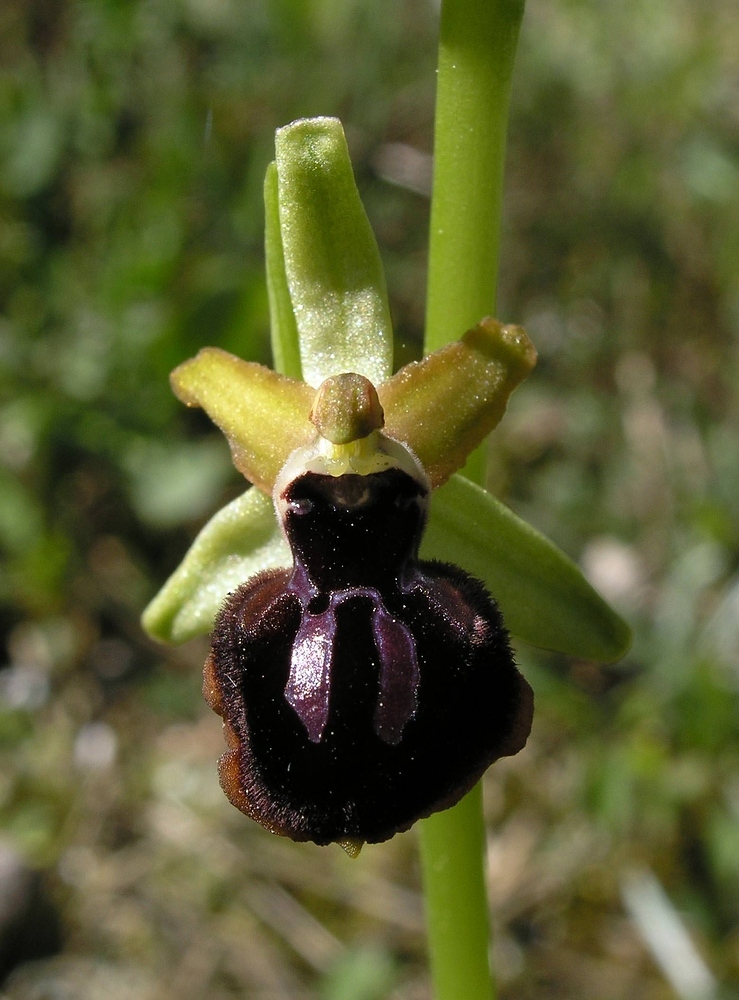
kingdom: Plantae
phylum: Tracheophyta
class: Liliopsida
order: Asparagales
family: Orchidaceae
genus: Ophrys
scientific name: Ophrys sphegodes
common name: Early spider-orchid
